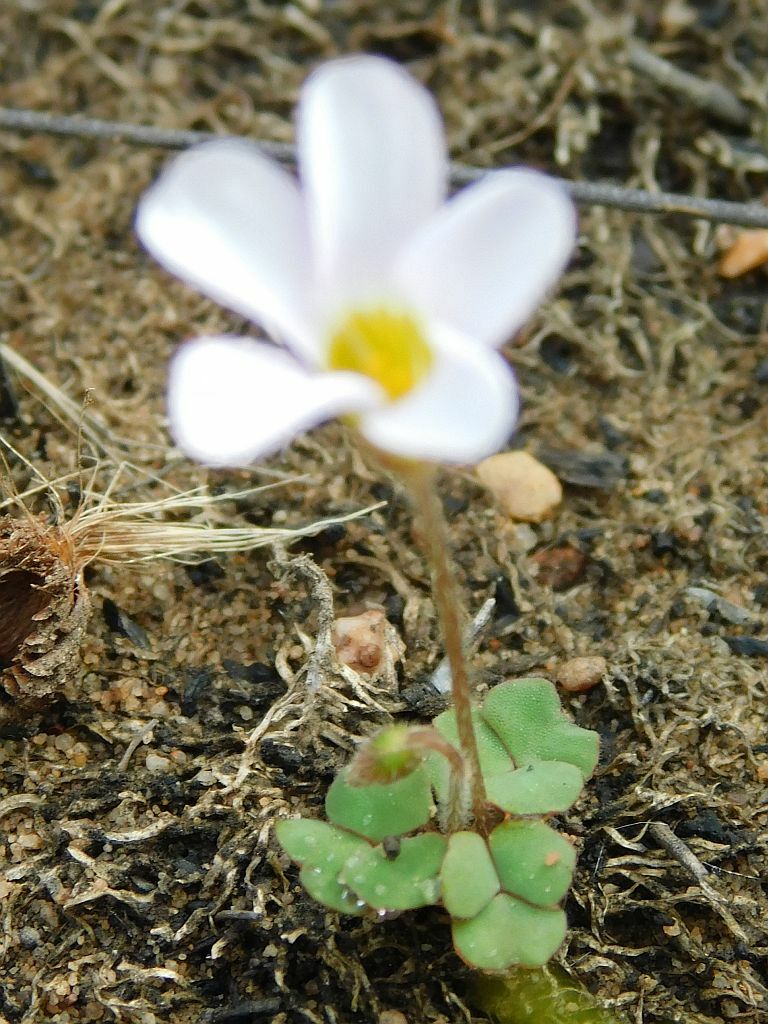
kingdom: Plantae
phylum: Tracheophyta
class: Magnoliopsida
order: Oxalidales
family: Oxalidaceae
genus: Oxalis
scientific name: Oxalis punctata
